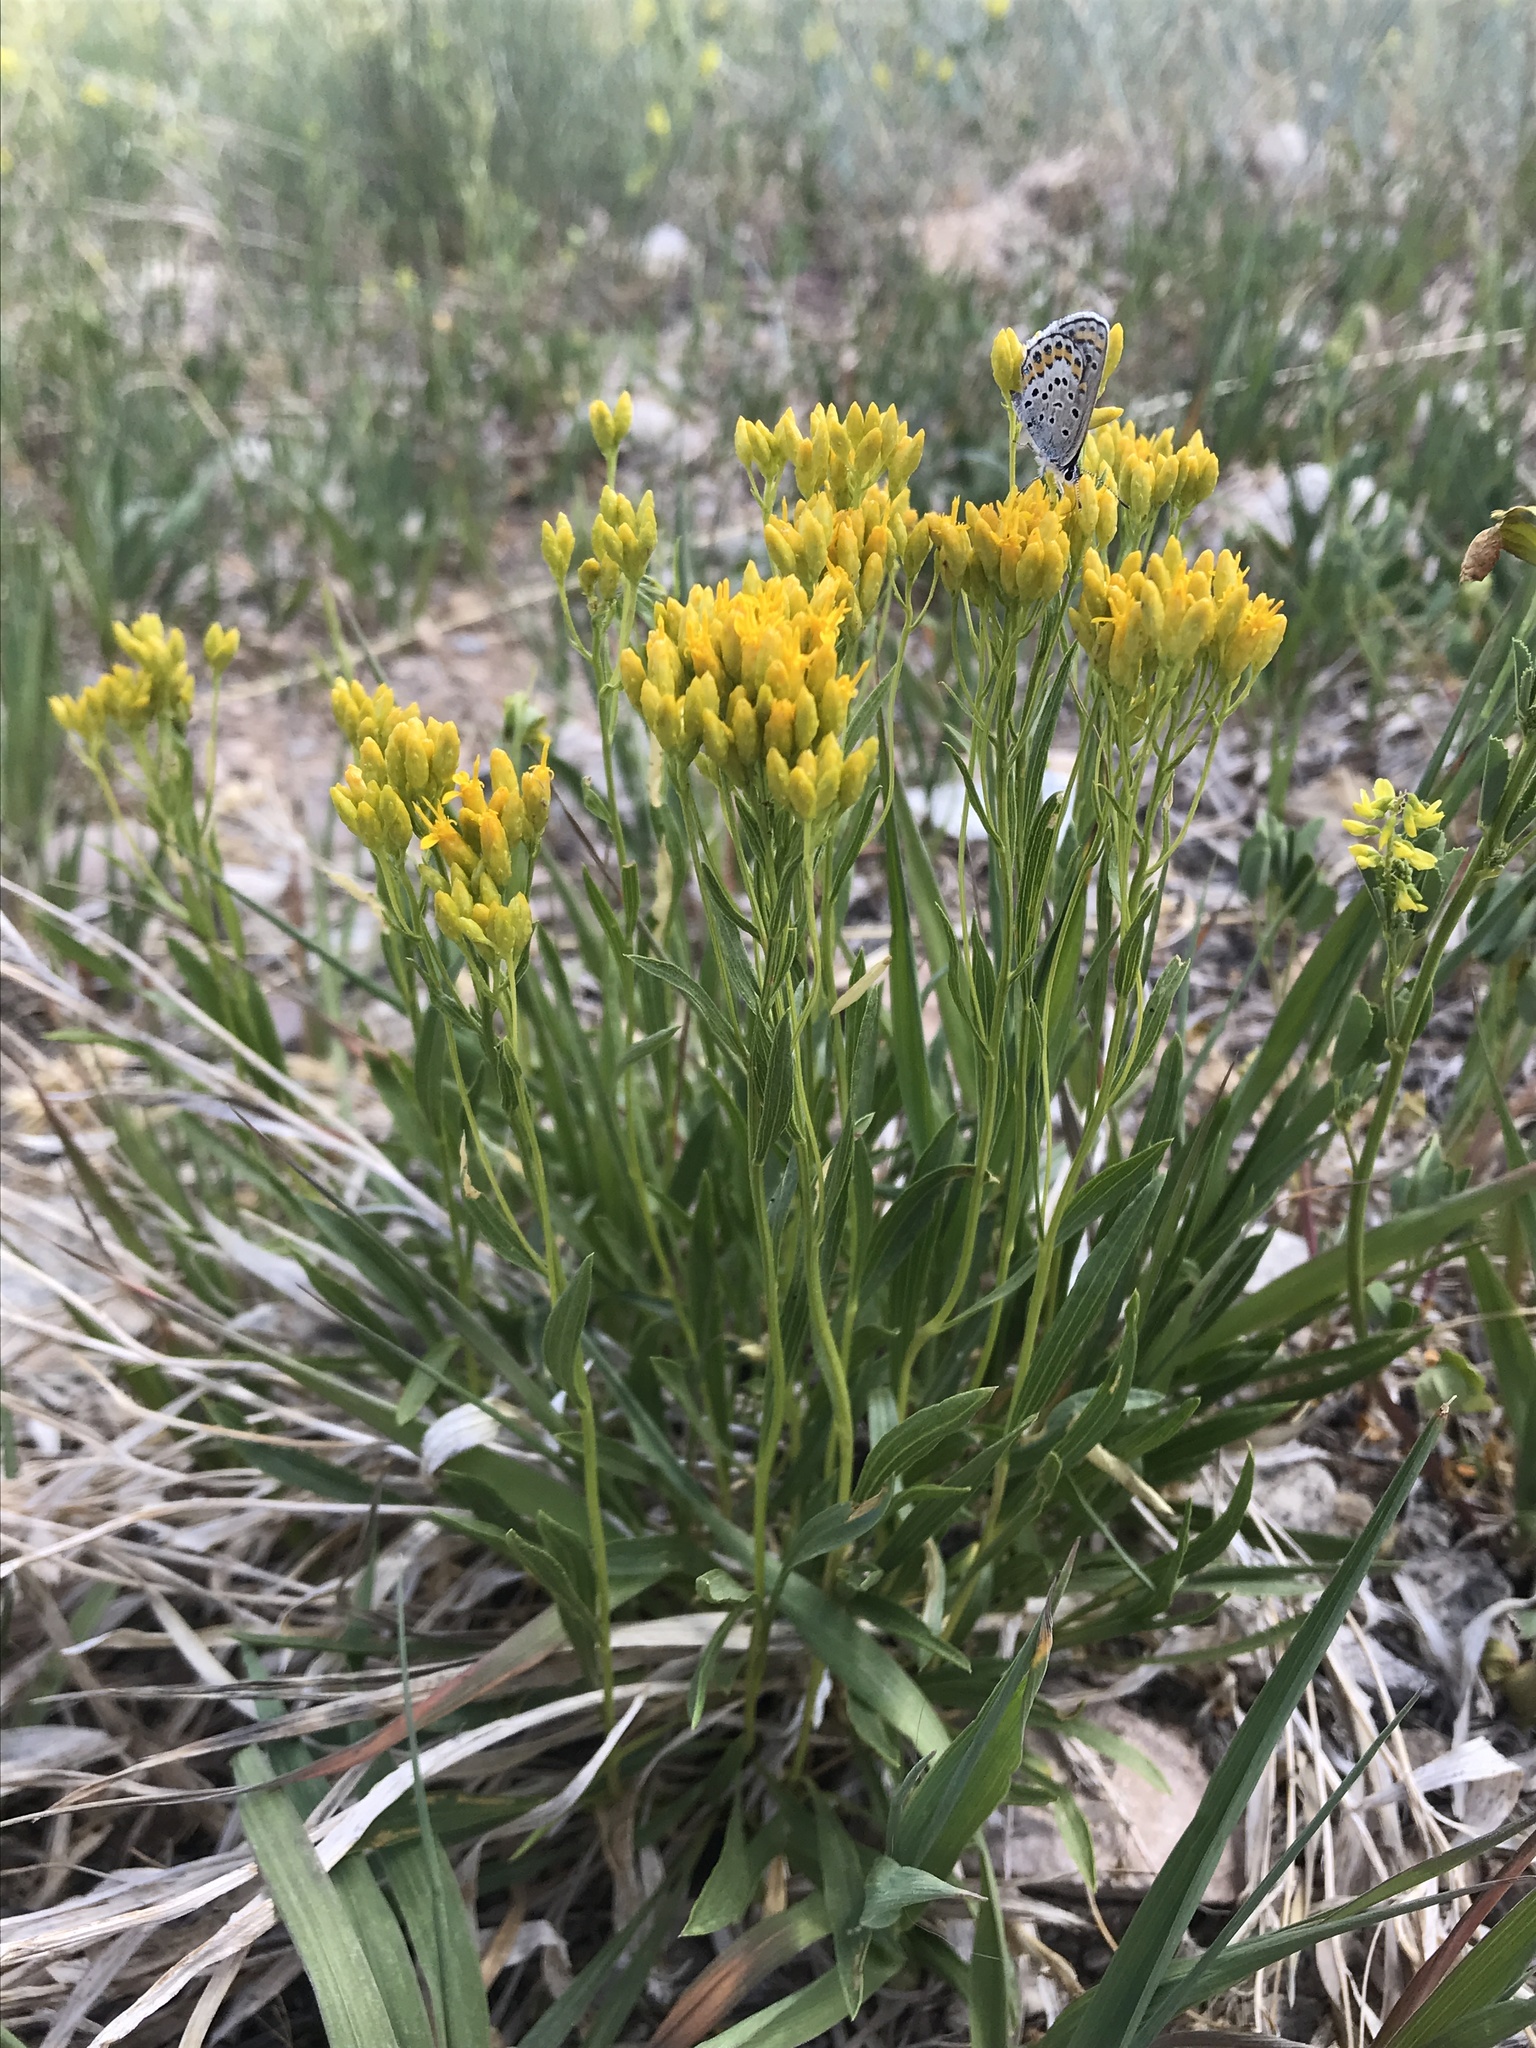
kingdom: Plantae
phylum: Tracheophyta
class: Magnoliopsida
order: Asterales
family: Asteraceae
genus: Petradoria
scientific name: Petradoria pumila
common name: Rock-goldenrod
